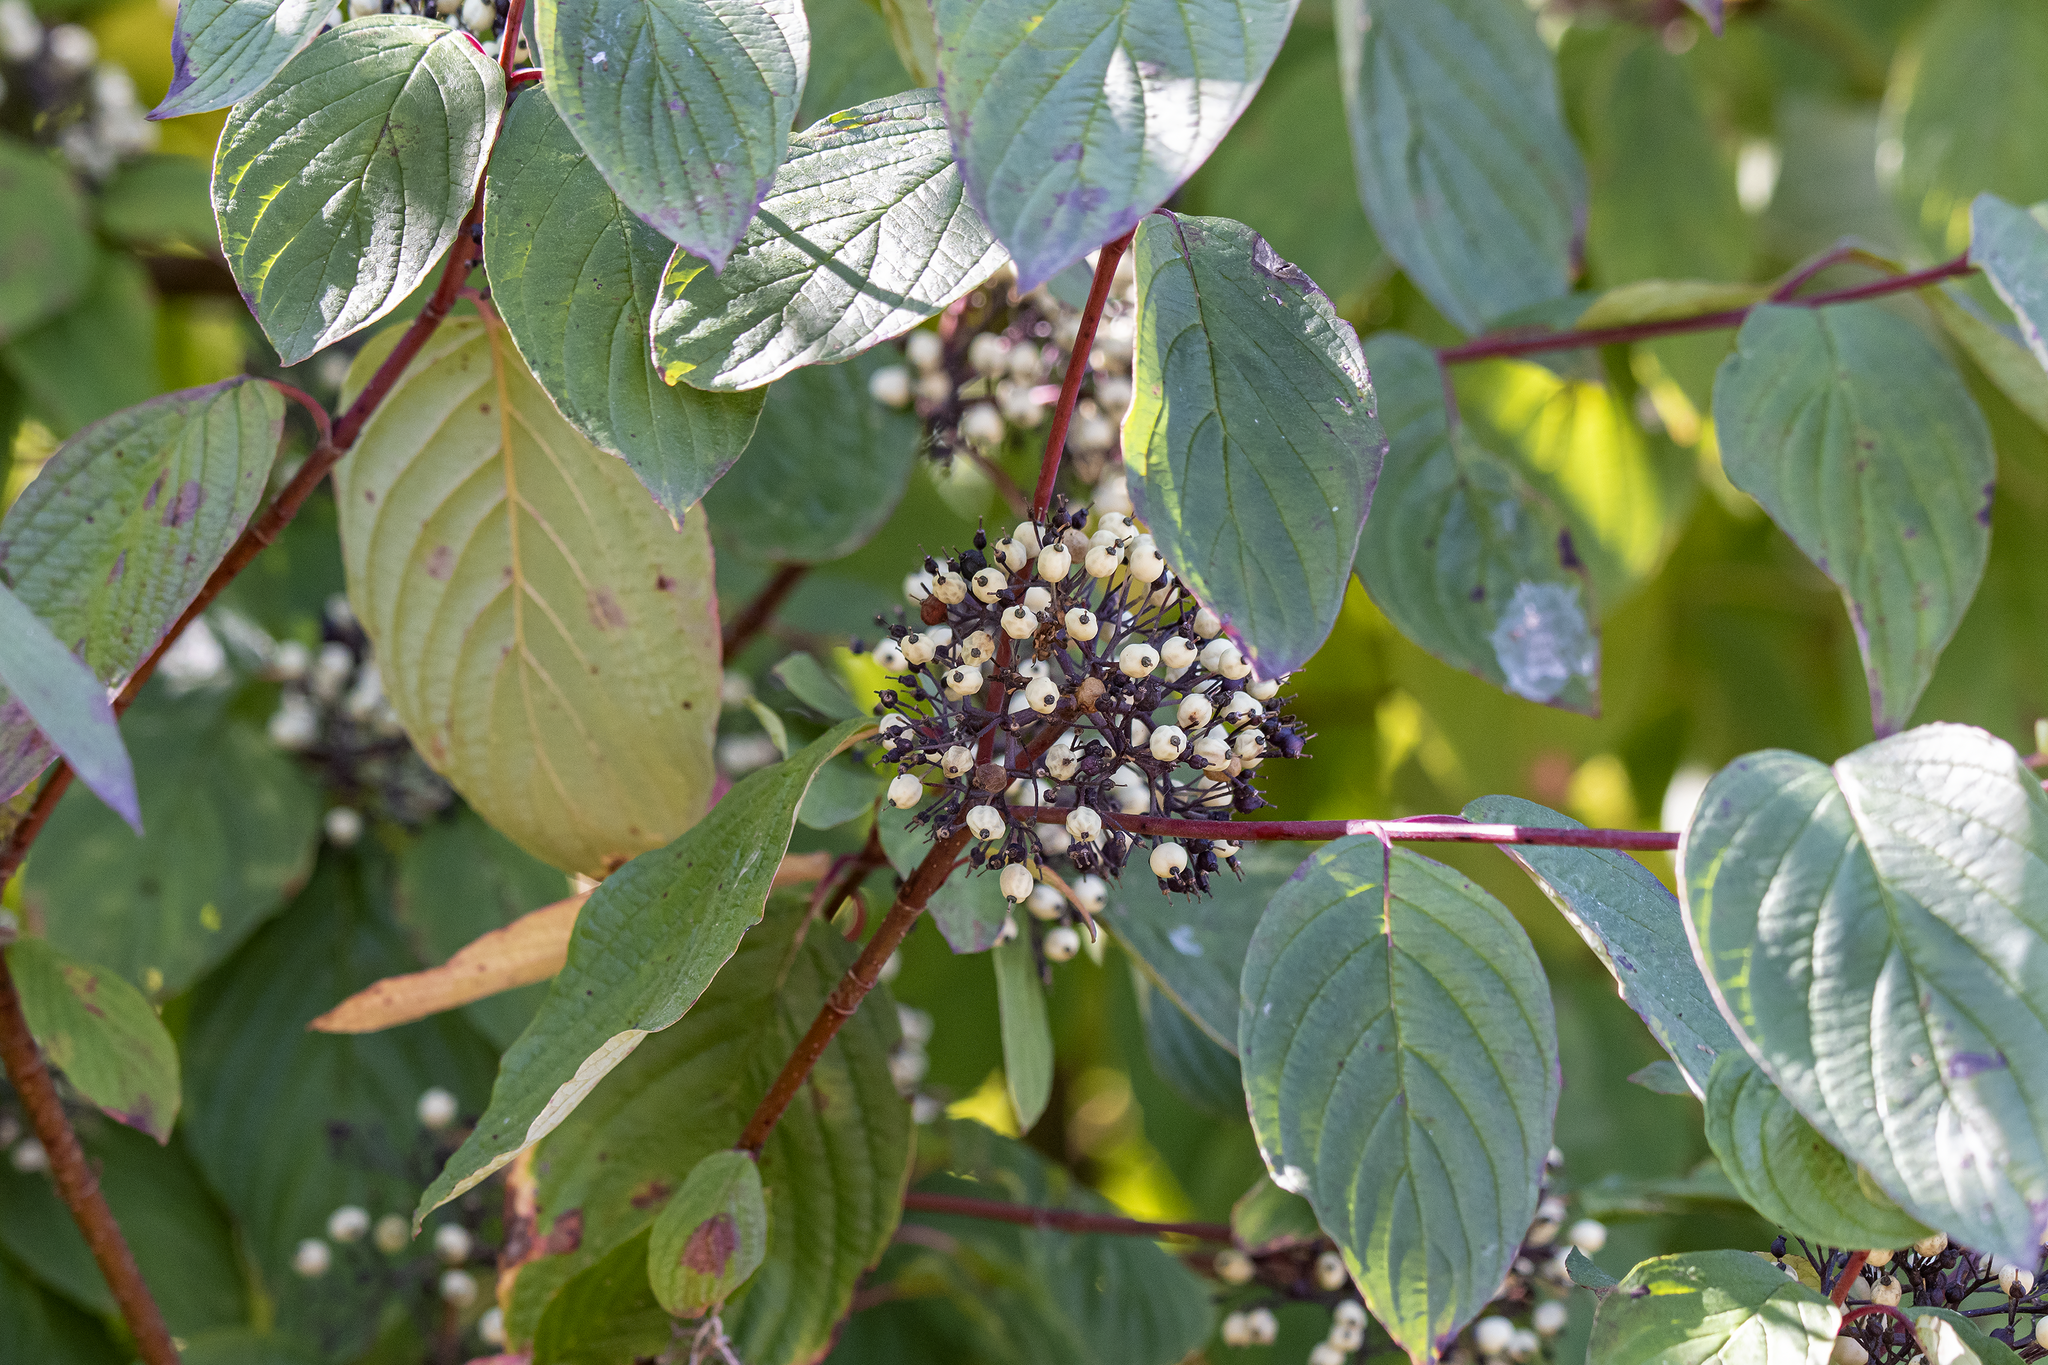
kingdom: Plantae
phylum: Tracheophyta
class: Magnoliopsida
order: Cornales
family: Cornaceae
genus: Cornus
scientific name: Cornus sericea
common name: Red-osier dogwood
